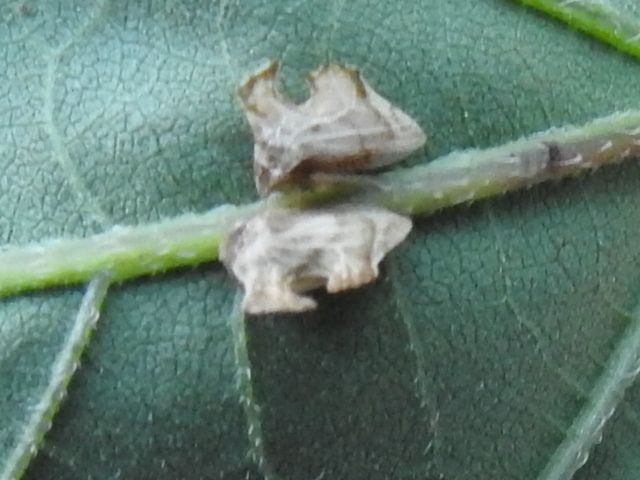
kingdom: Animalia
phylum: Arthropoda
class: Insecta
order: Hemiptera
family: Membracidae
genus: Entylia
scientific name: Entylia carinata
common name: Keeled treehopper
